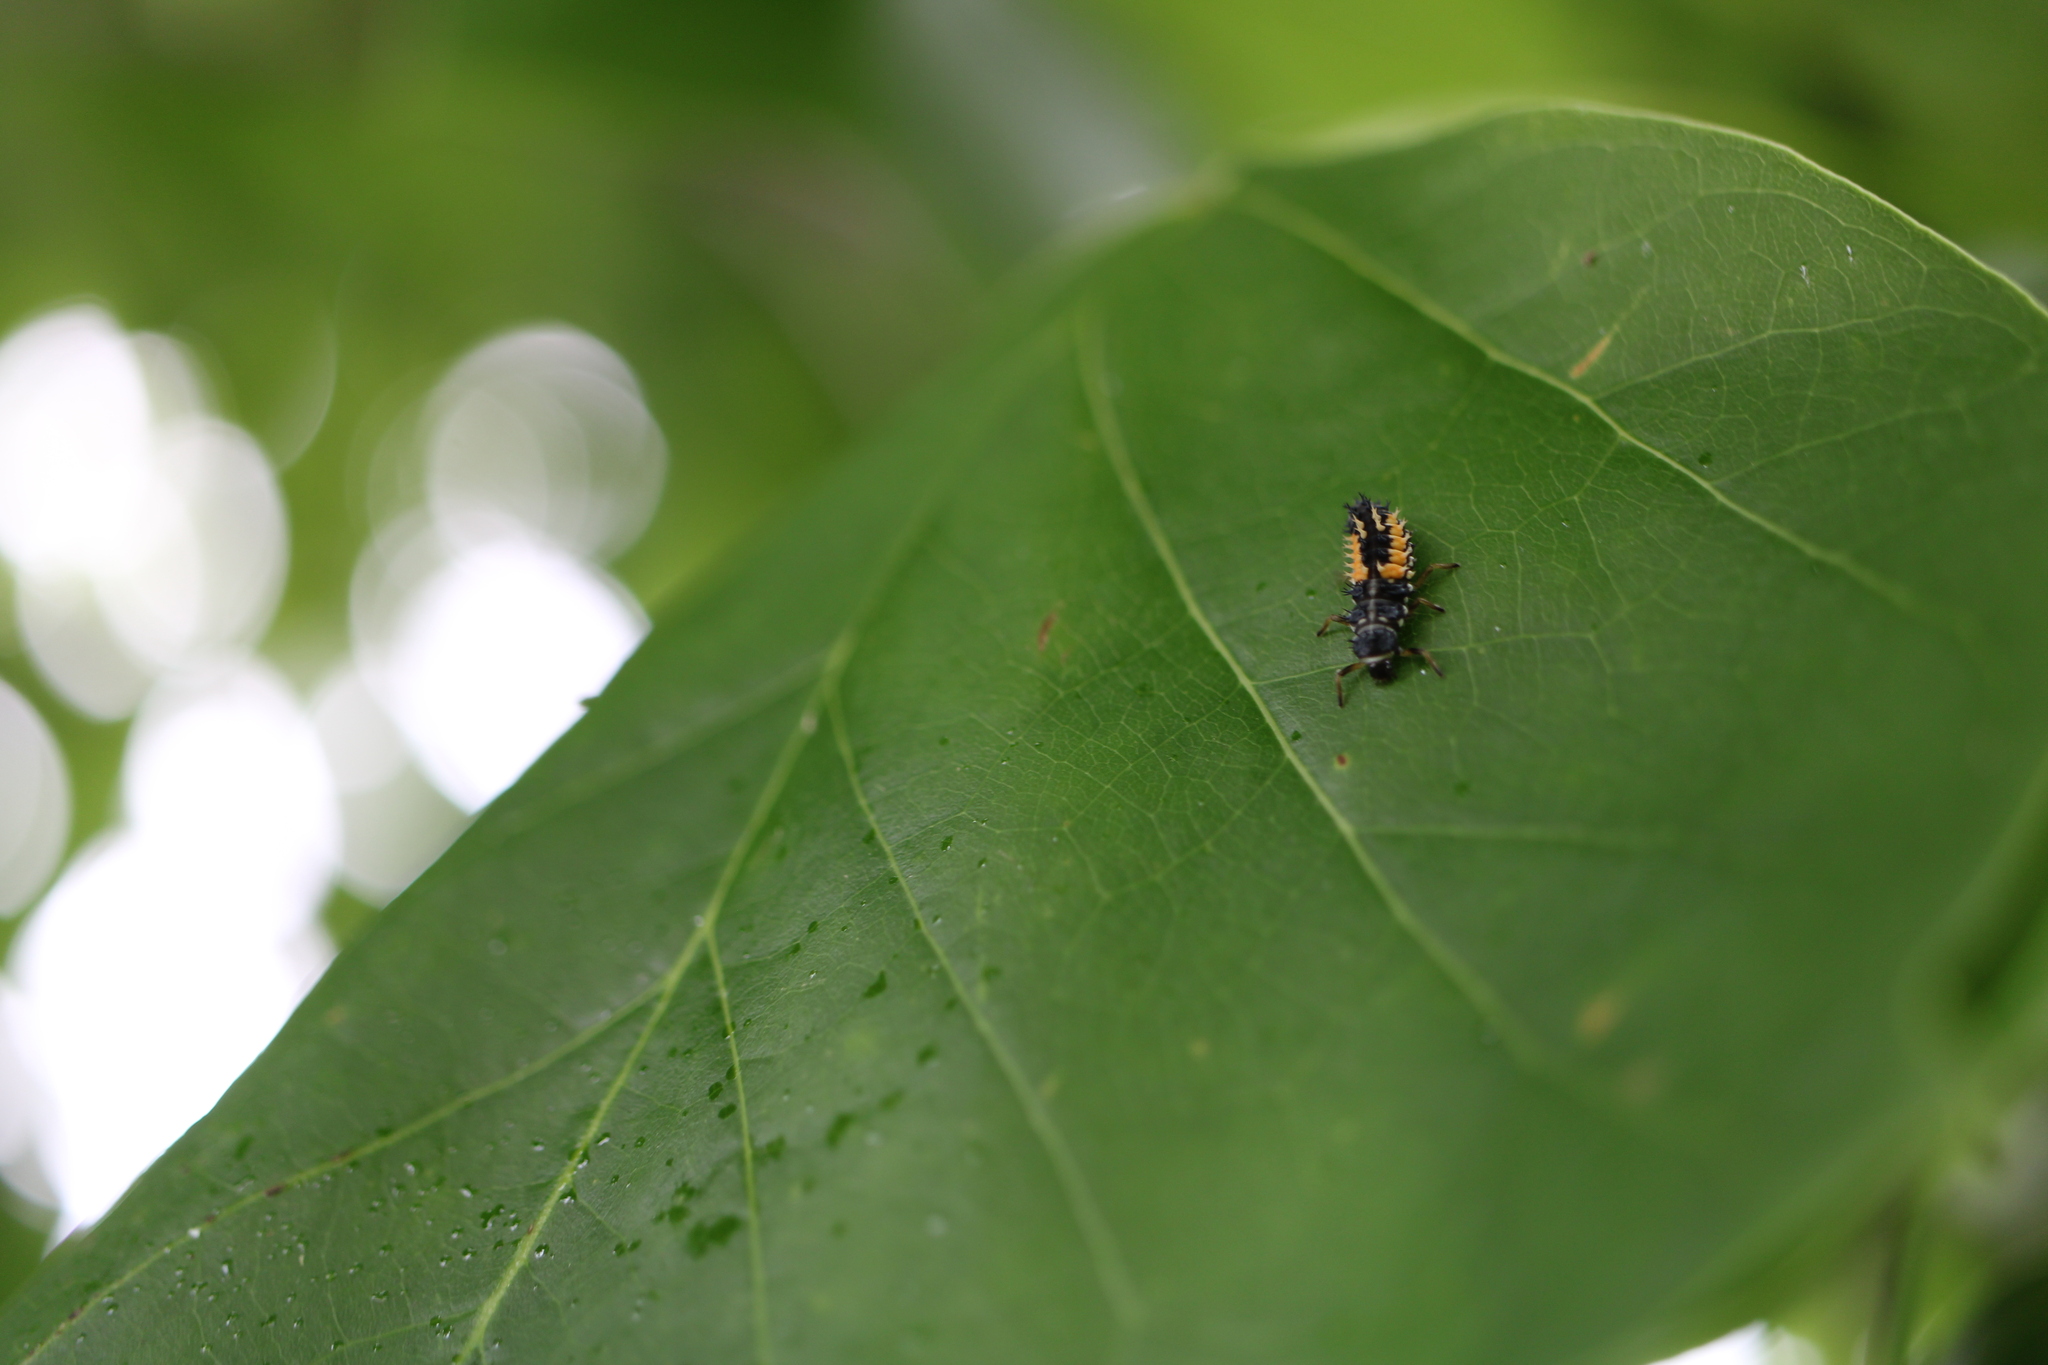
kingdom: Animalia
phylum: Arthropoda
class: Insecta
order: Coleoptera
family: Coccinellidae
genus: Harmonia
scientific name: Harmonia axyridis
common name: Harlequin ladybird
